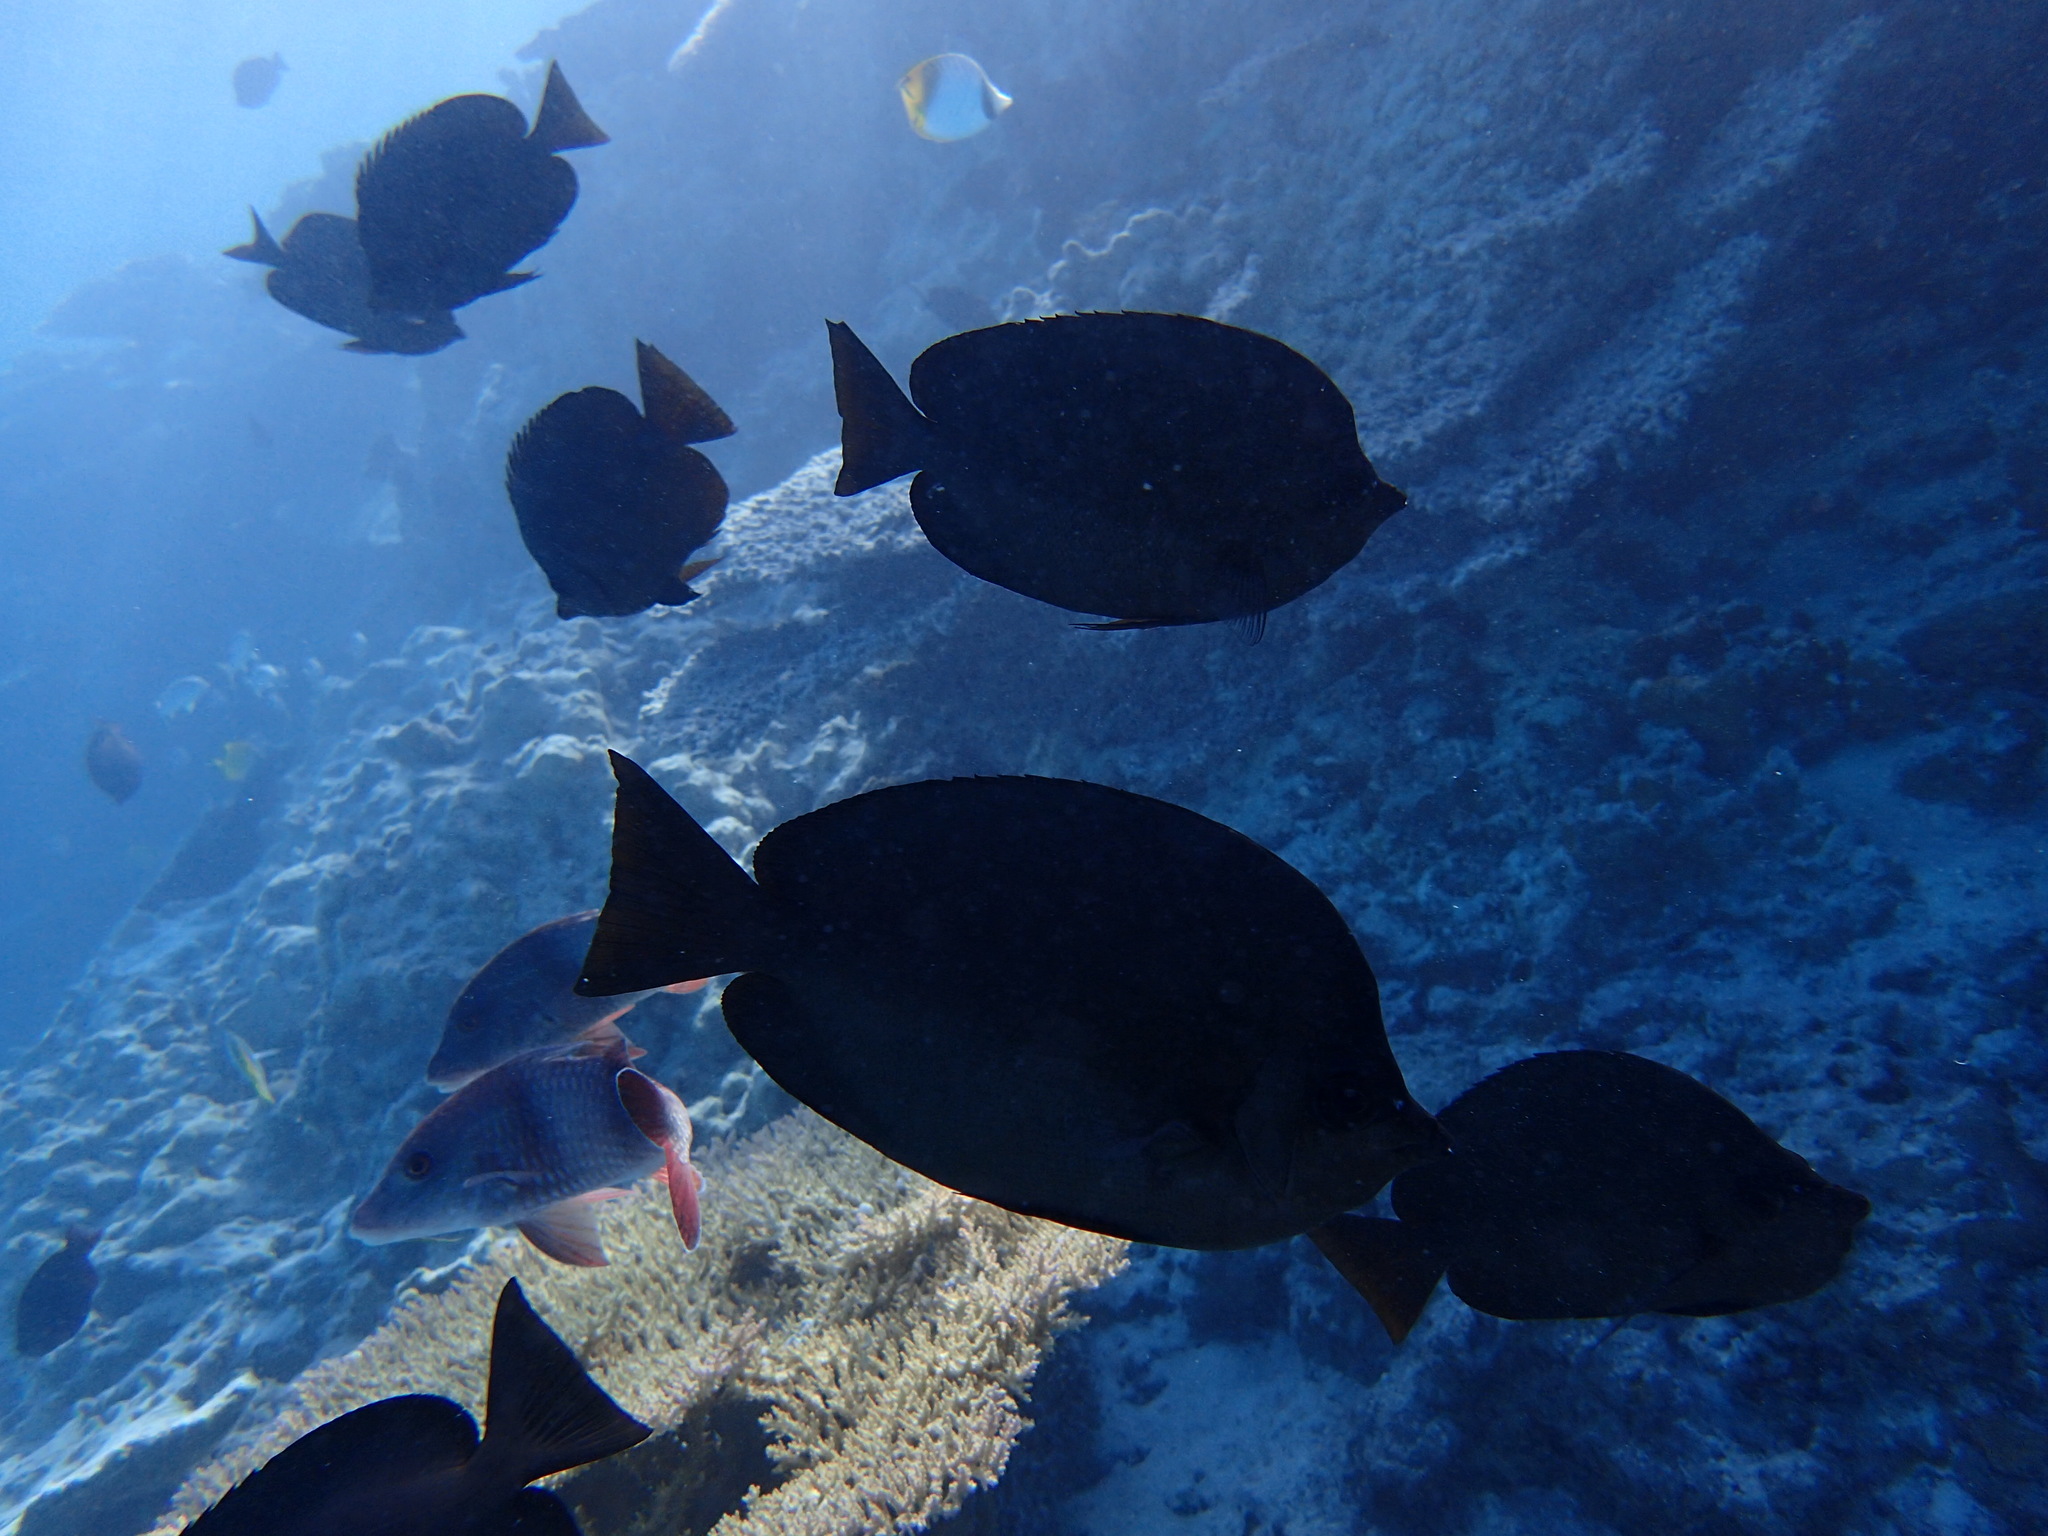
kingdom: Animalia
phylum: Chordata
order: Perciformes
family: Chaetodontidae
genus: Hemitaurichthys
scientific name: Hemitaurichthys thompsoni
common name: Thompson's butterflyfish
